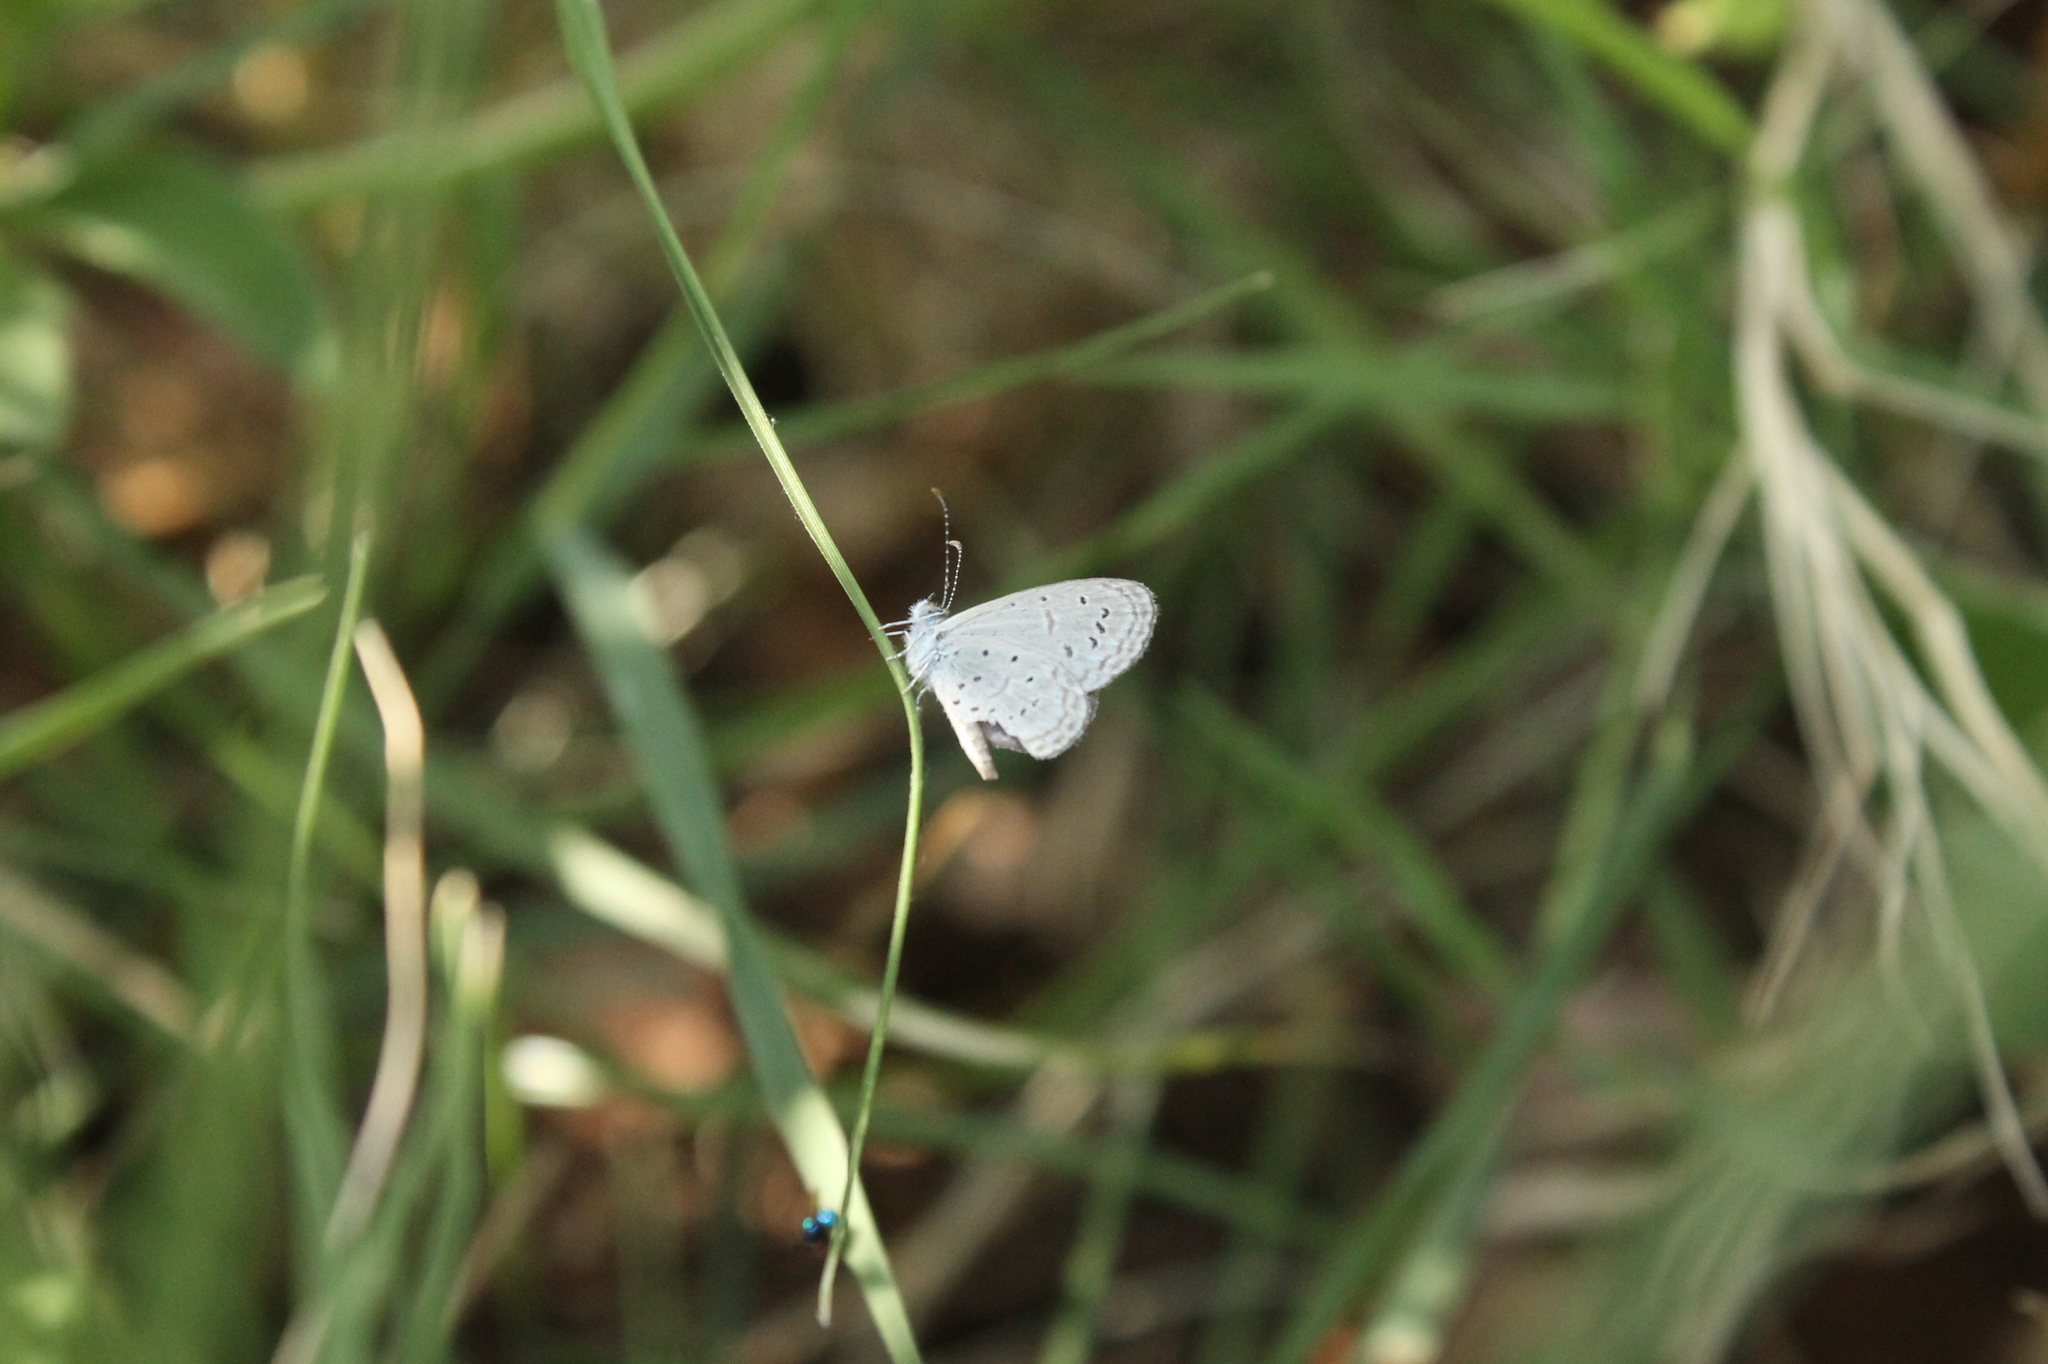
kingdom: Animalia
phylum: Arthropoda
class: Insecta
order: Lepidoptera
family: Lycaenidae
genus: Zizula
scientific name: Zizula hylax
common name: Gaika blue
